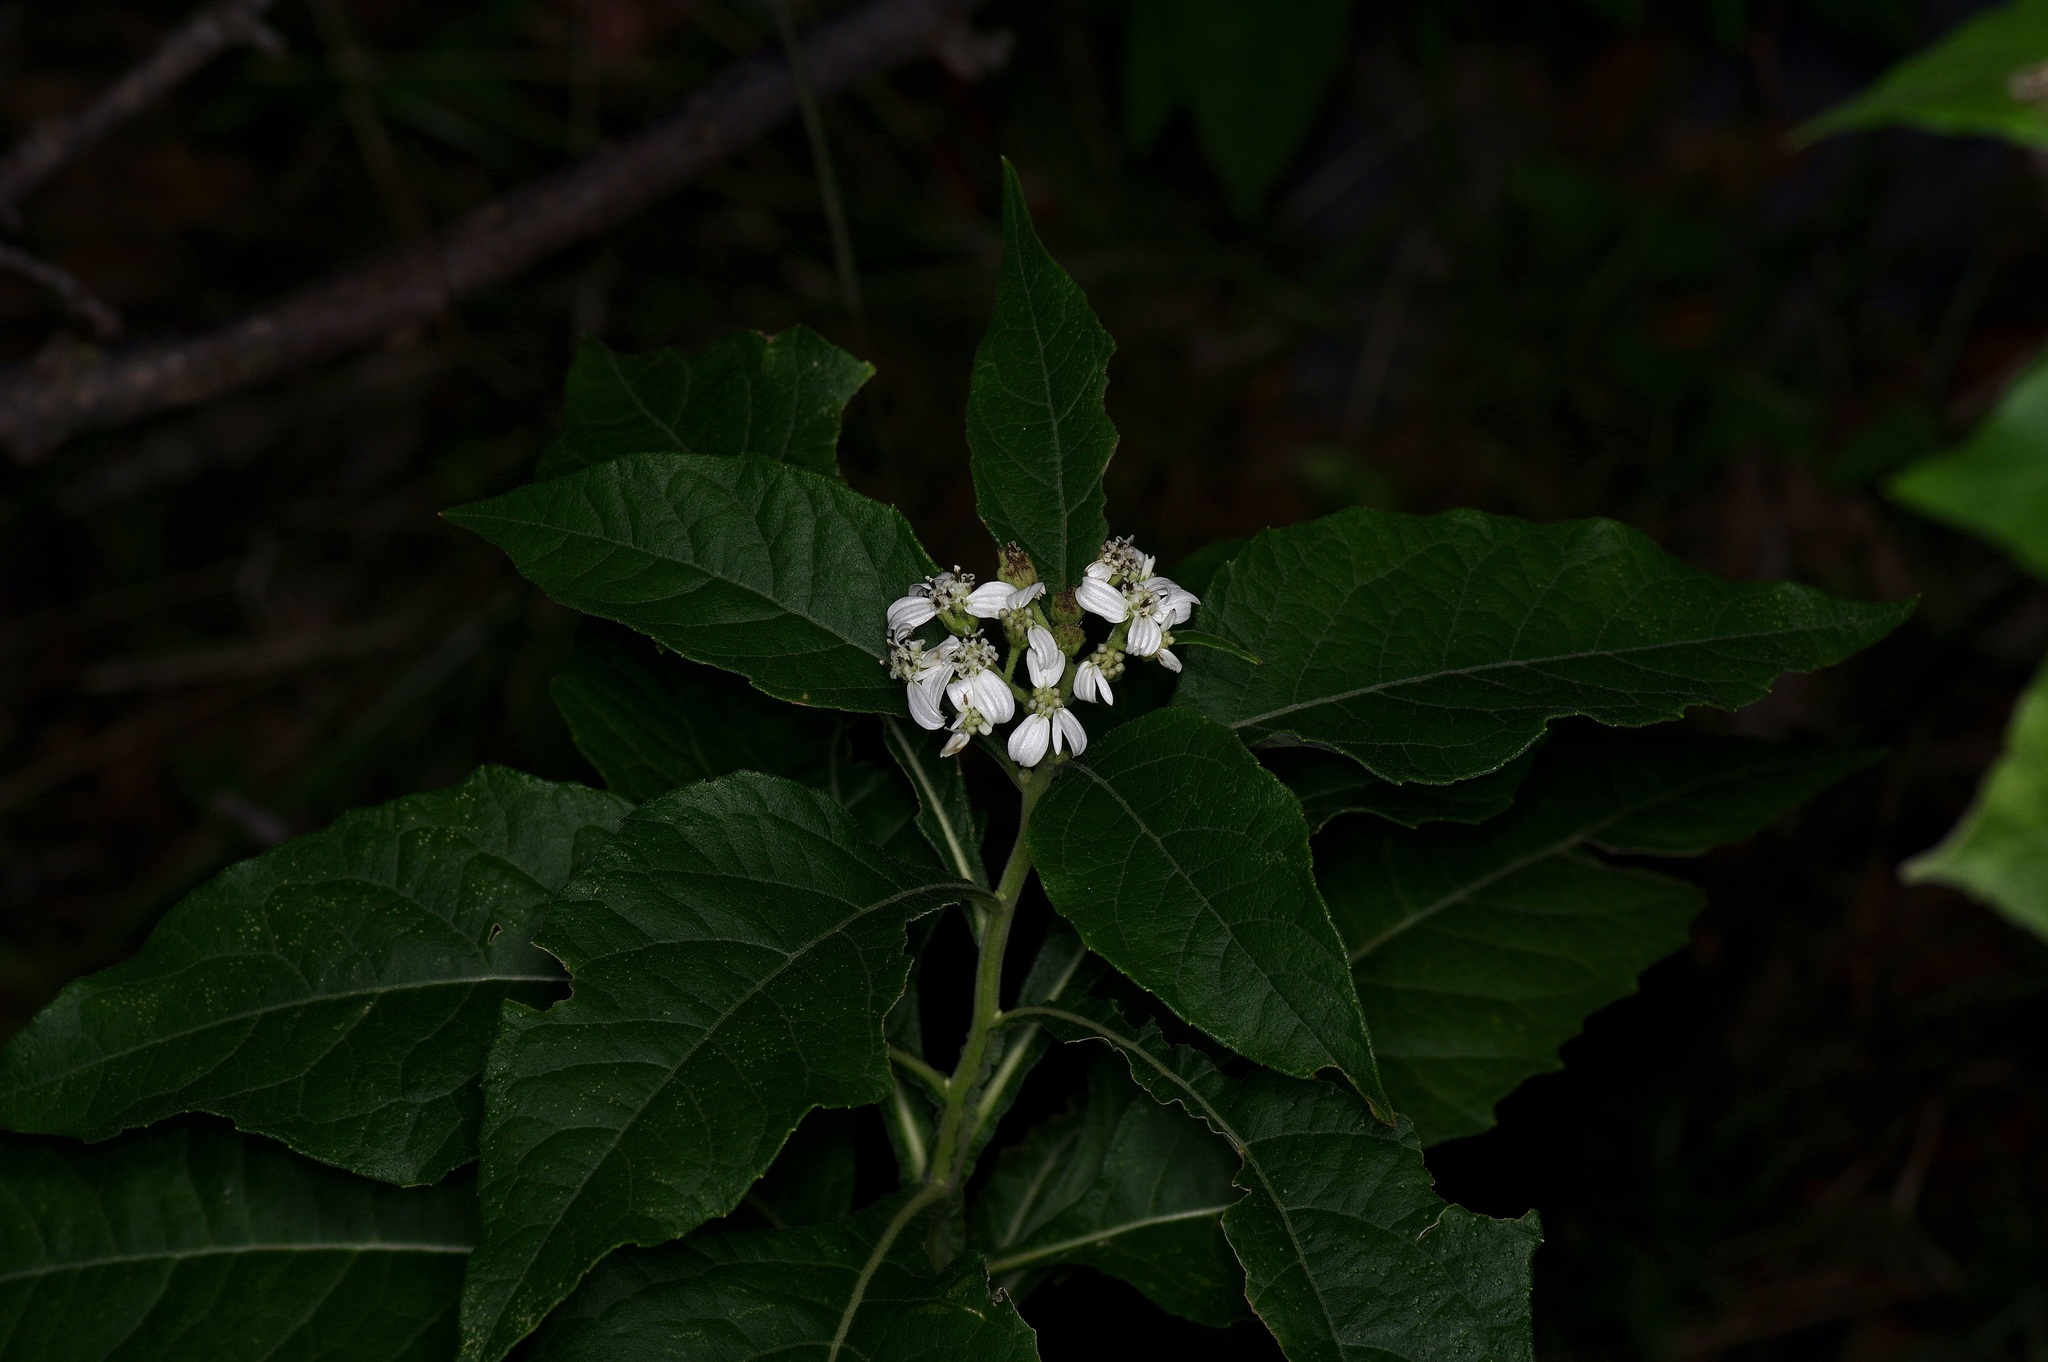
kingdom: Plantae
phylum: Tracheophyta
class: Magnoliopsida
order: Asterales
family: Asteraceae
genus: Verbesina
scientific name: Verbesina virginica
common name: Frostweed
